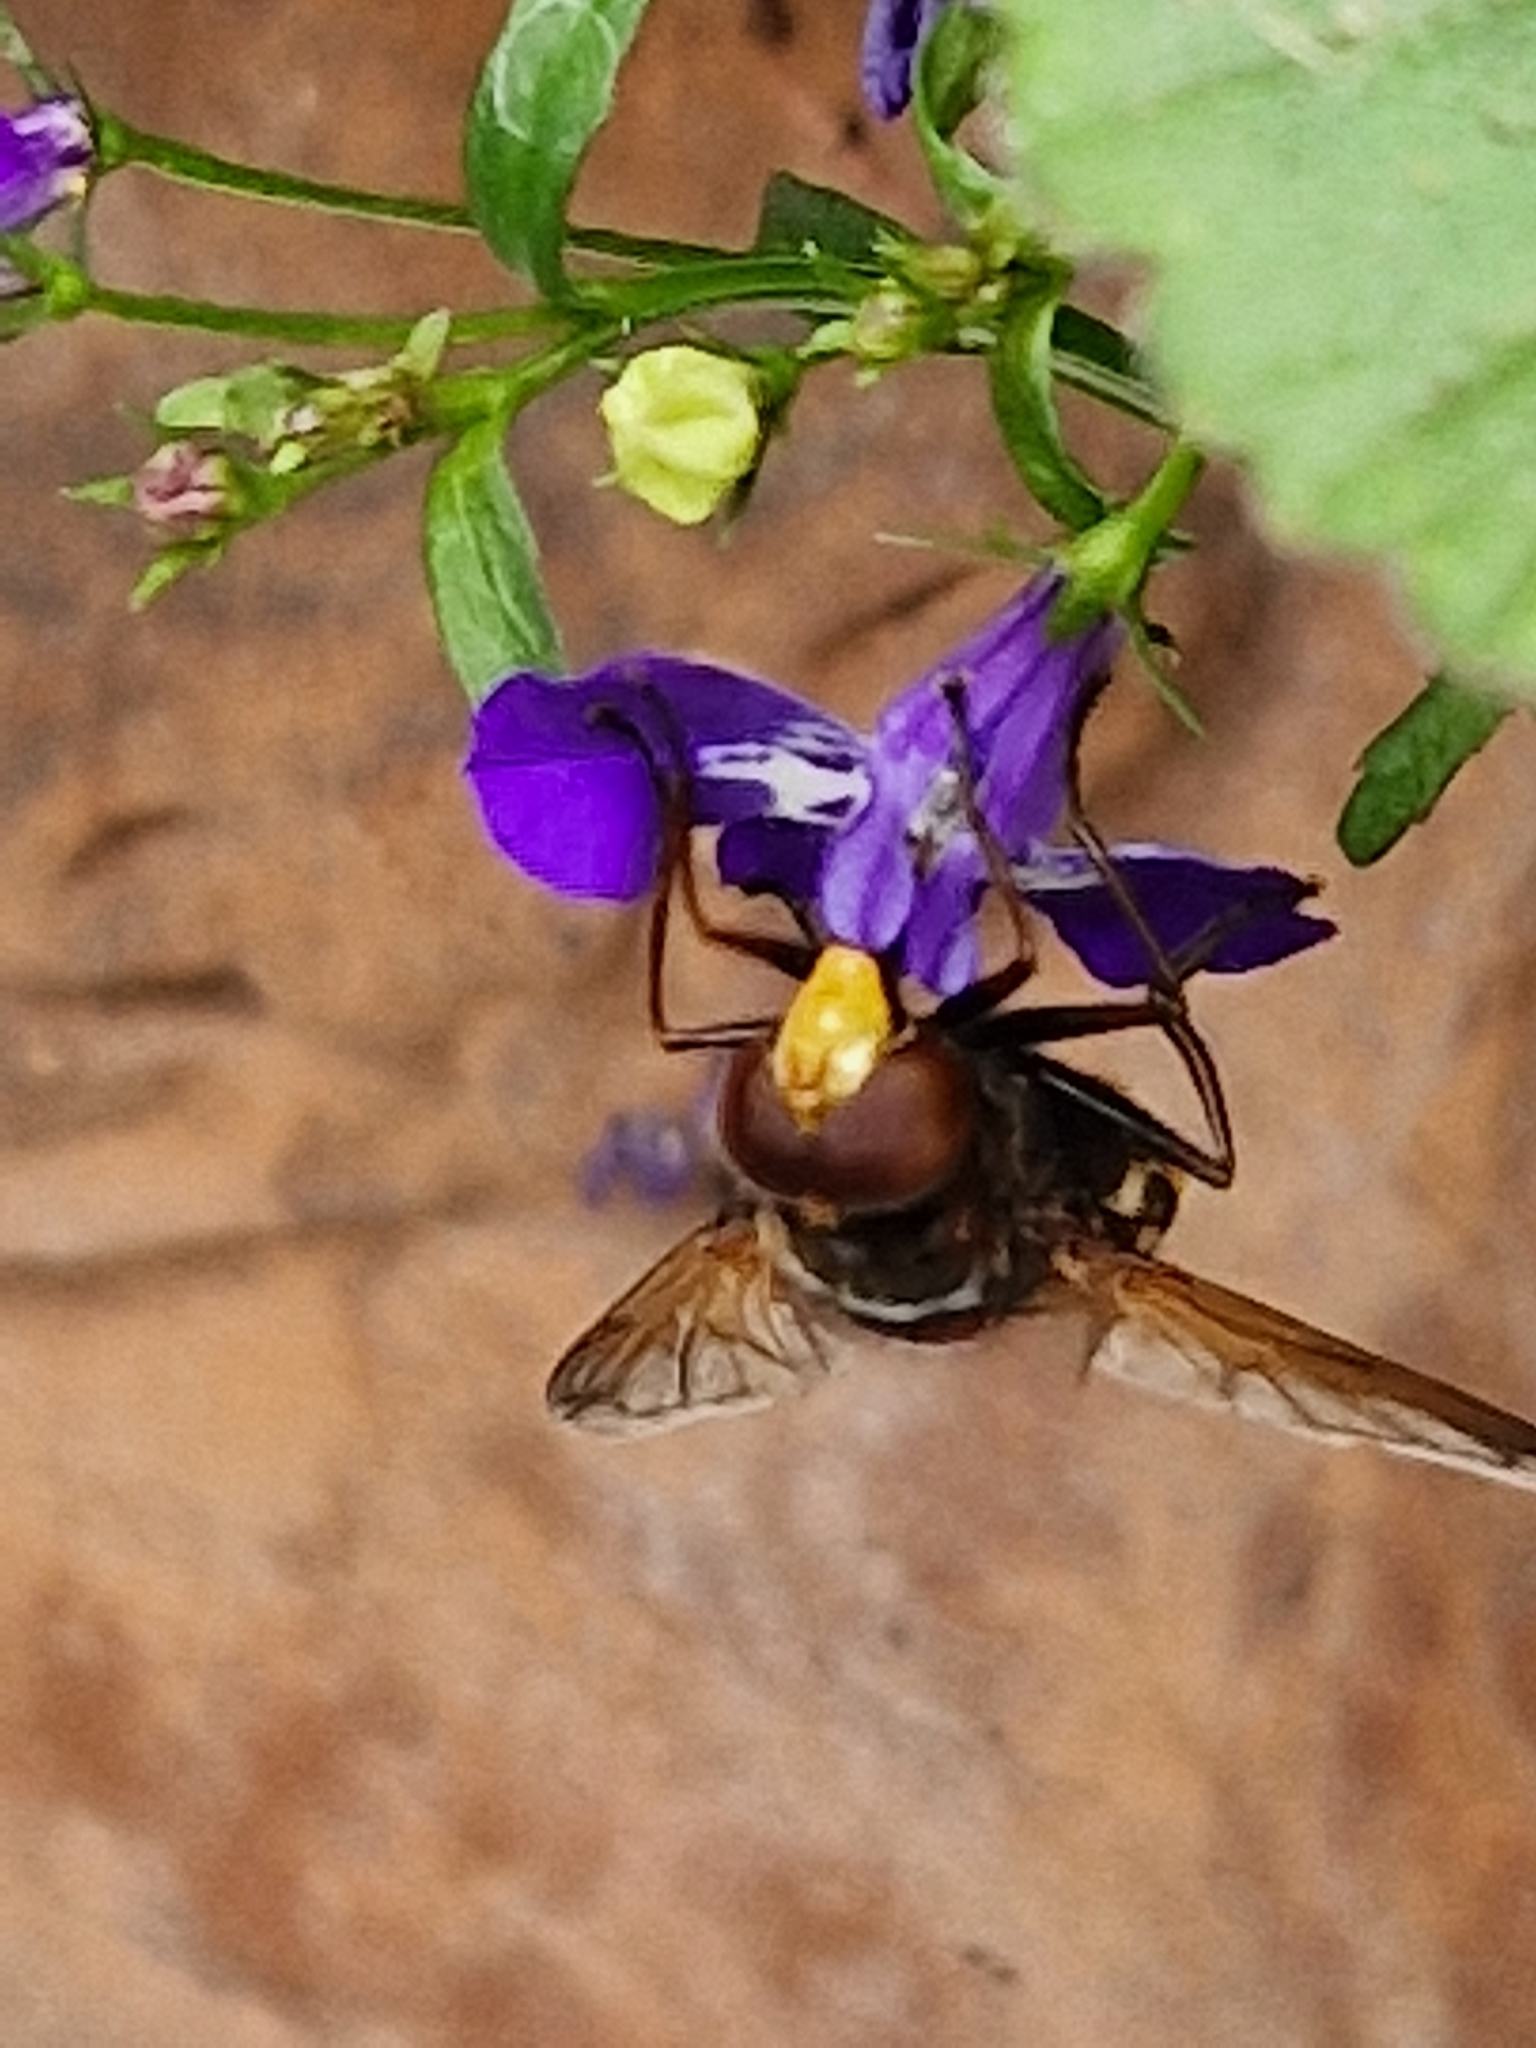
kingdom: Animalia
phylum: Arthropoda
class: Insecta
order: Diptera
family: Syrphidae
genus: Volucella
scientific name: Volucella zonaria
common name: Hornet hoverfly
